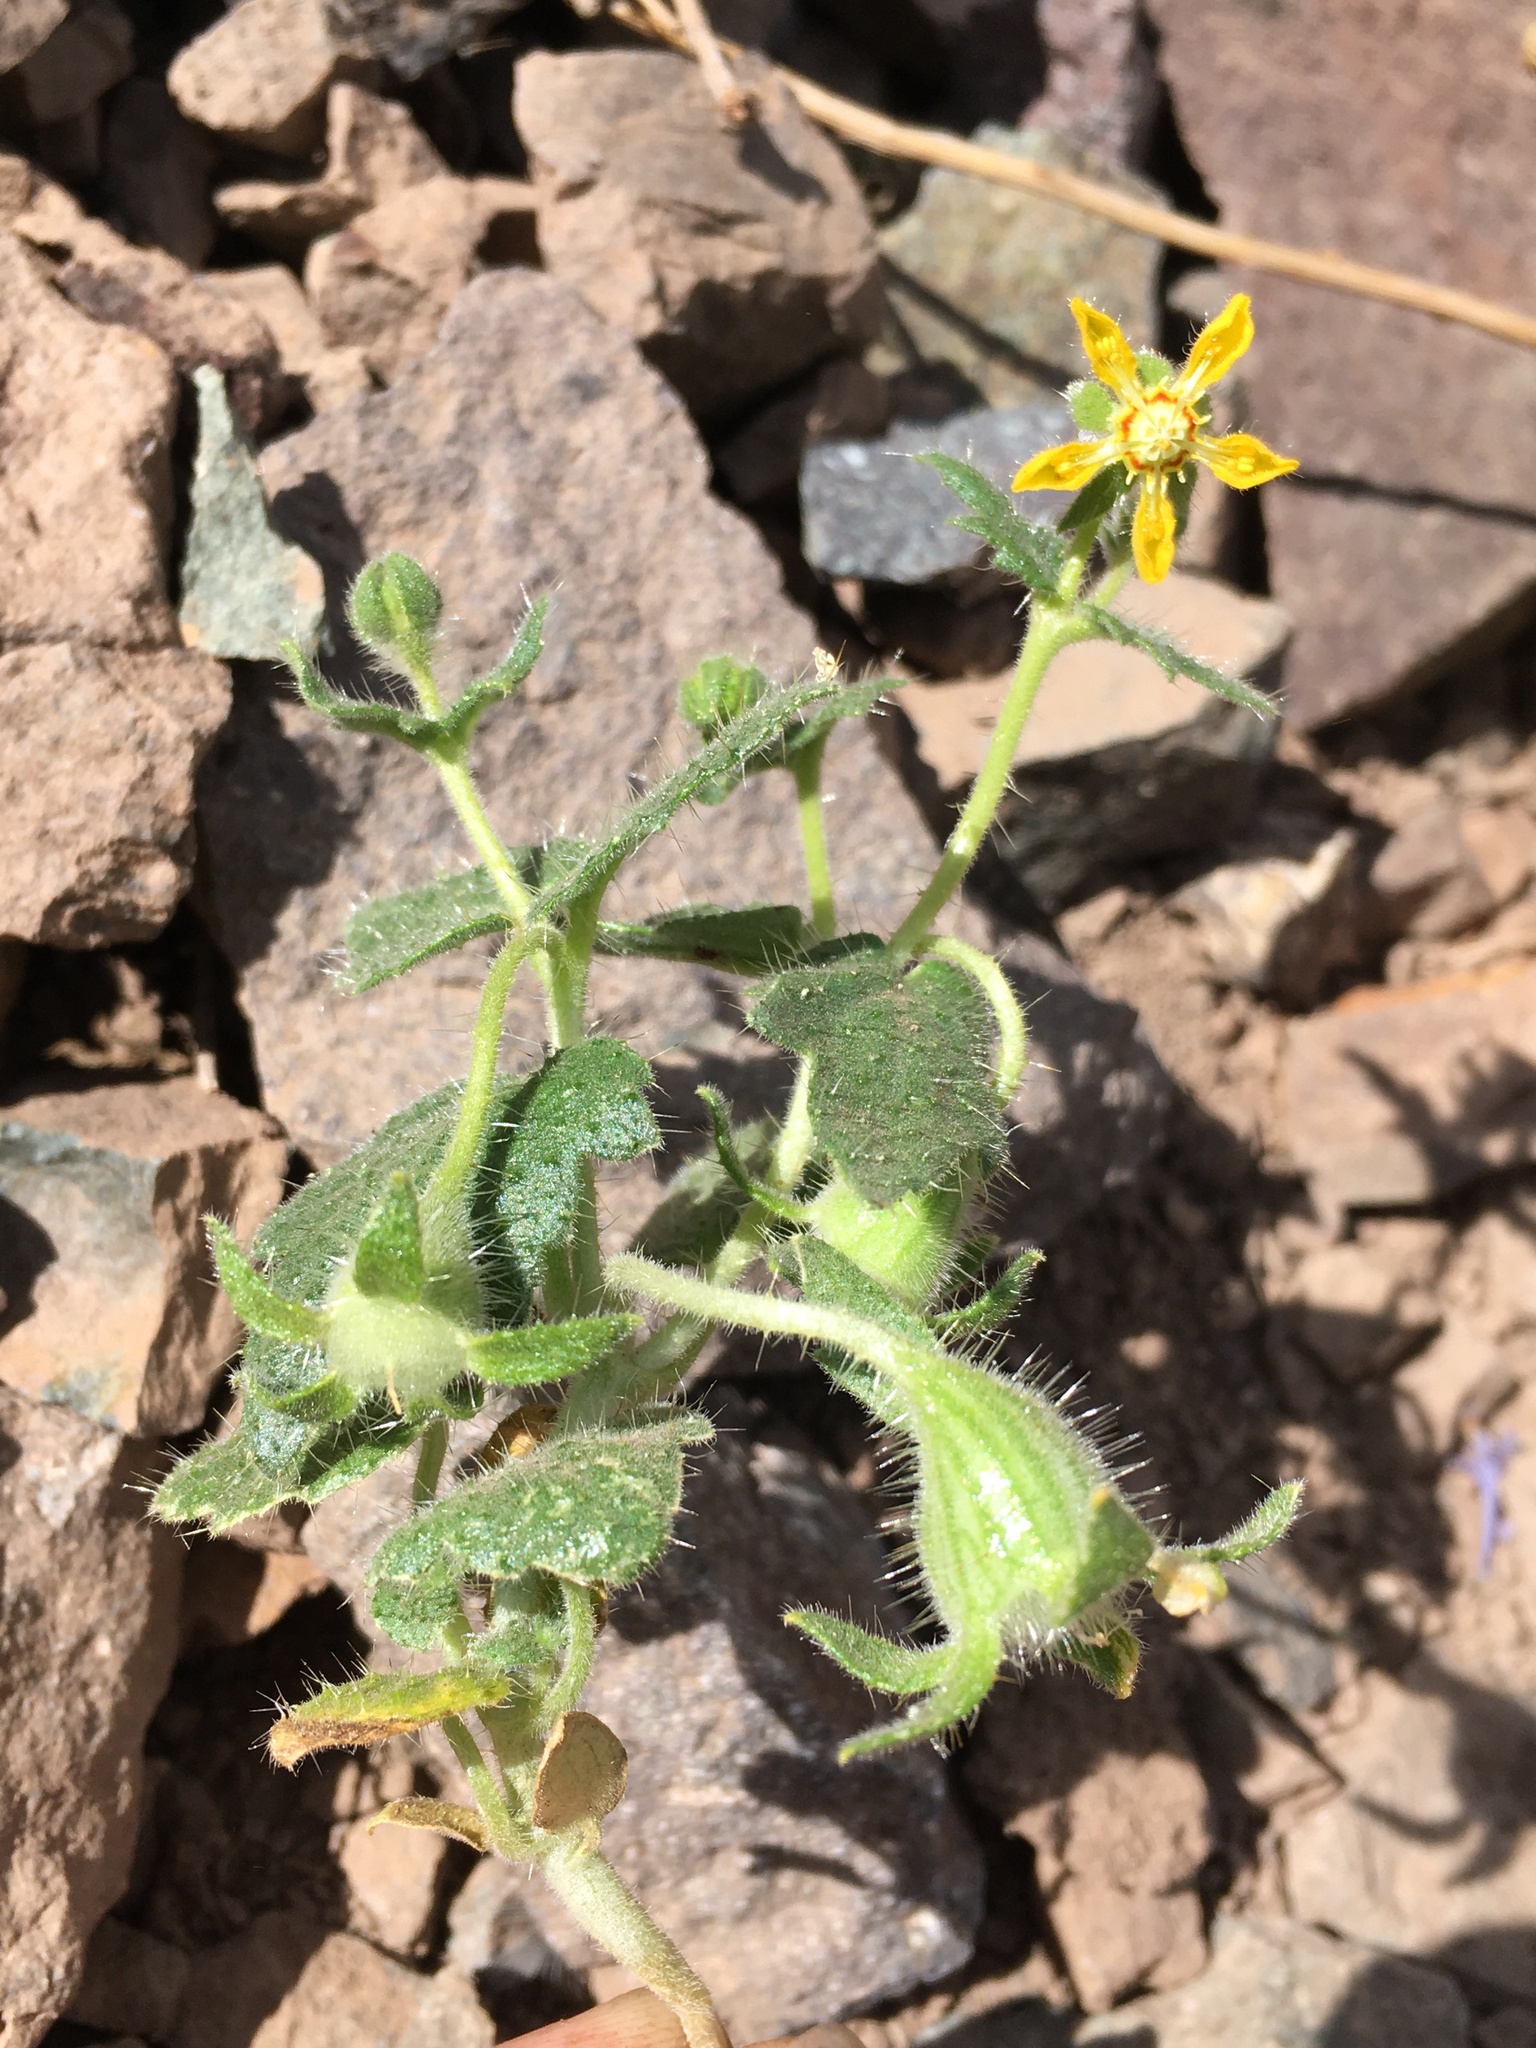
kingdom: Plantae
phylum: Tracheophyta
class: Magnoliopsida
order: Cornales
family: Loasaceae
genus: Loasa
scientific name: Loasa heterophylla
